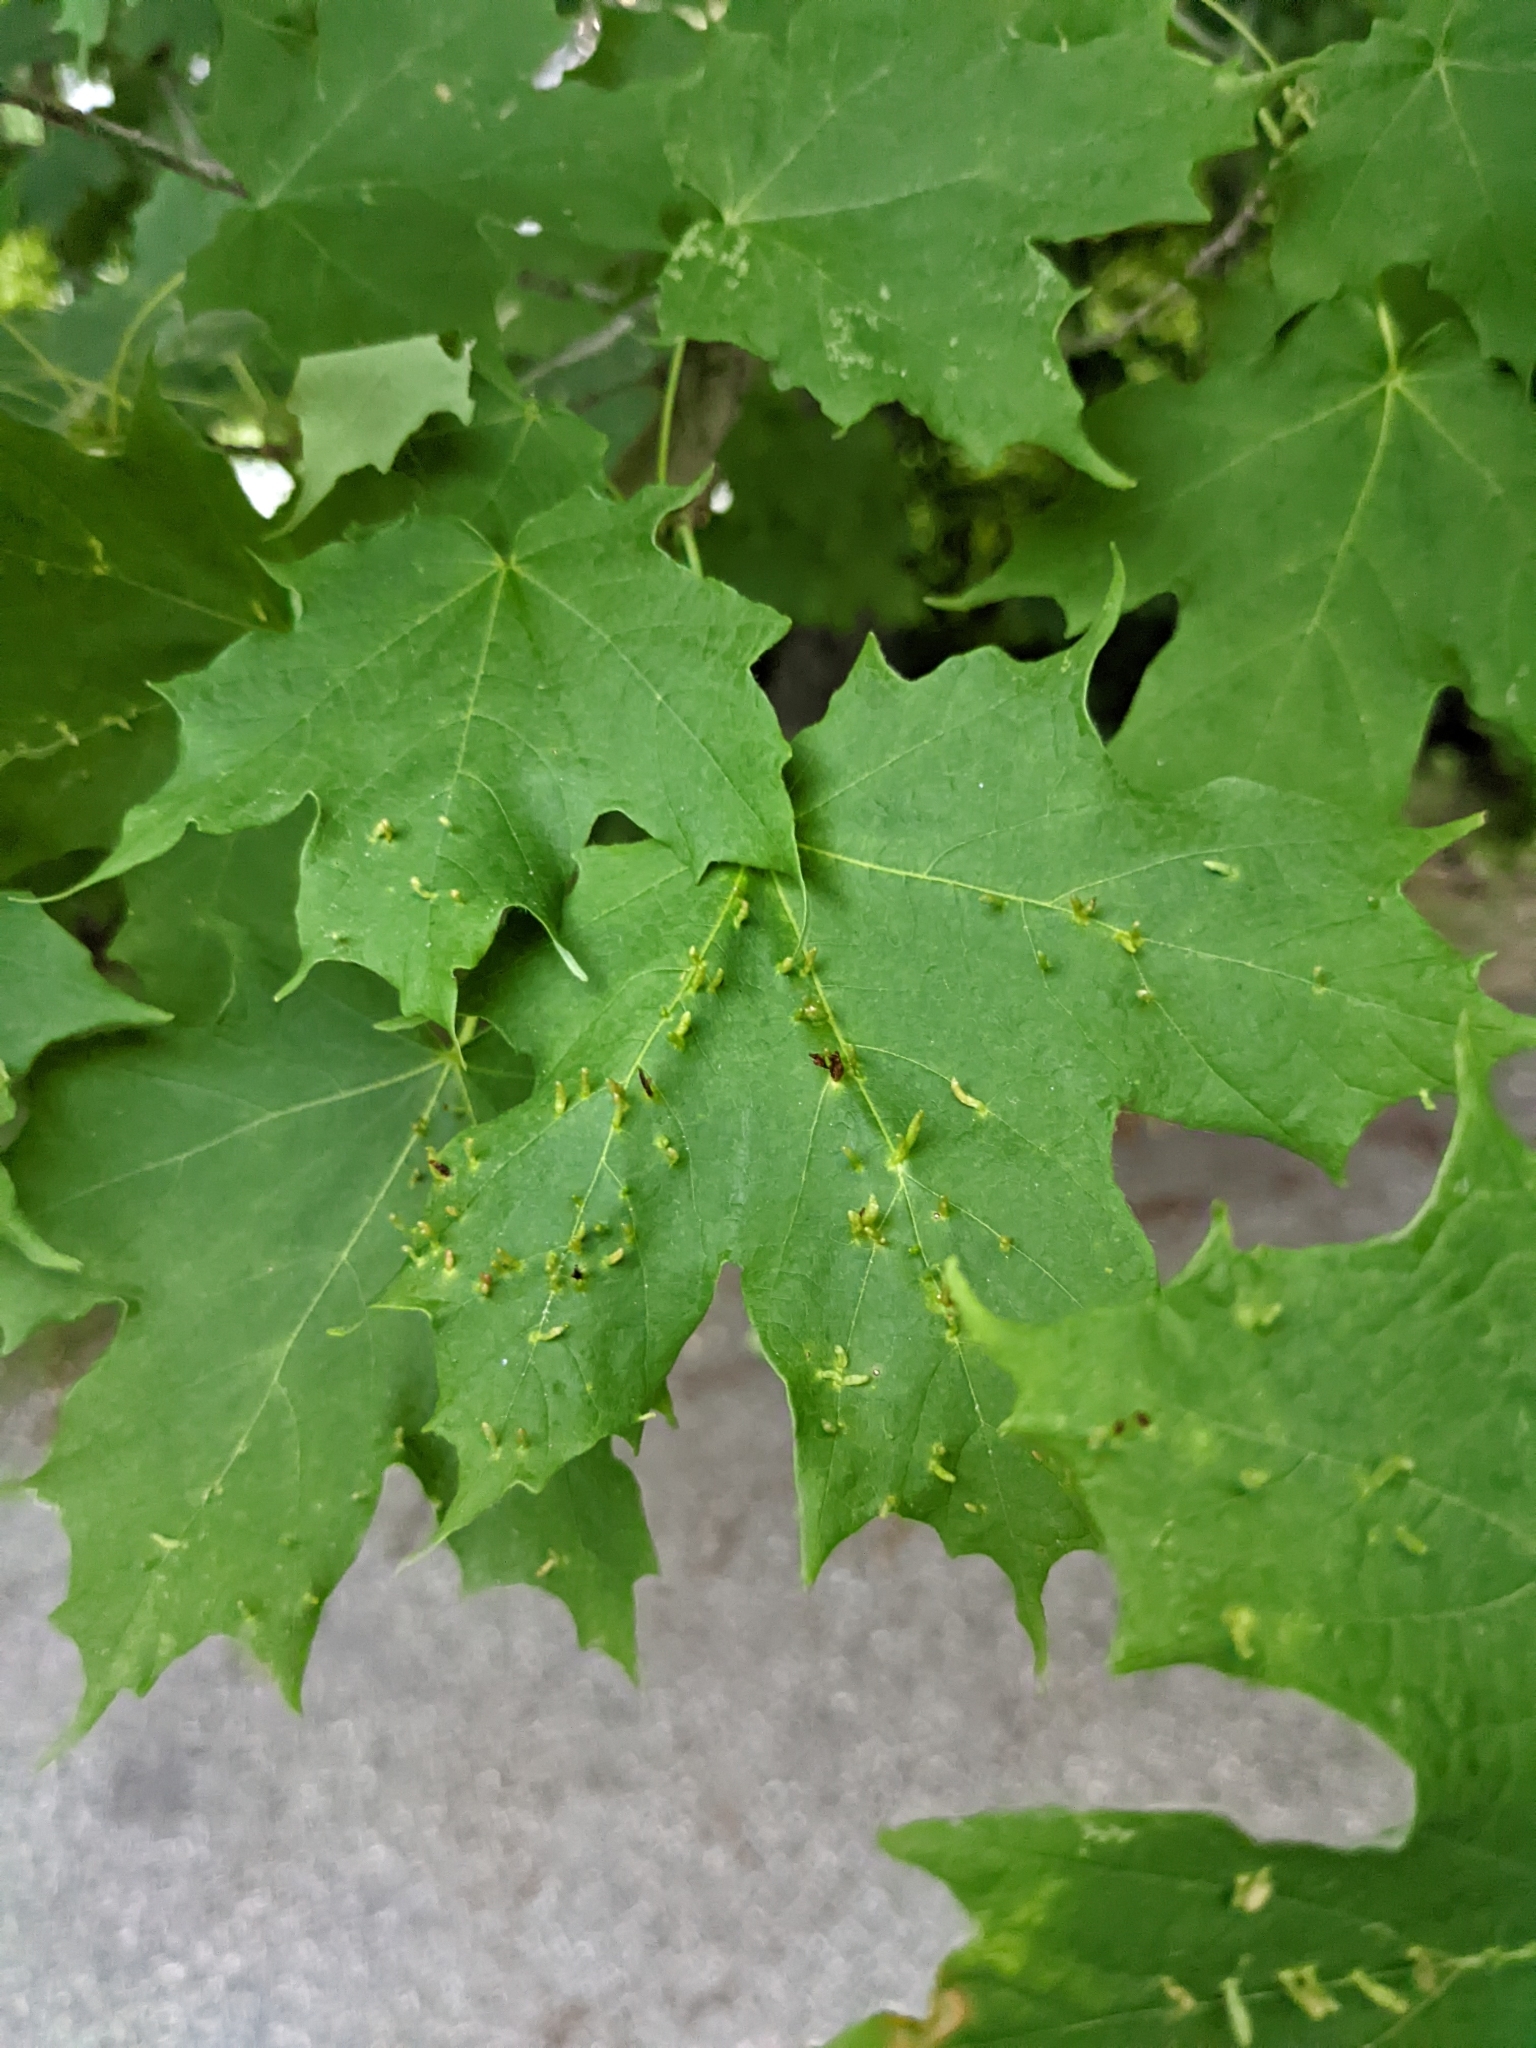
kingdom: Animalia
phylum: Arthropoda
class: Arachnida
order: Trombidiformes
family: Eriophyidae
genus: Vasates
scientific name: Vasates aceriscrumena
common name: Maple spindle gall mite
